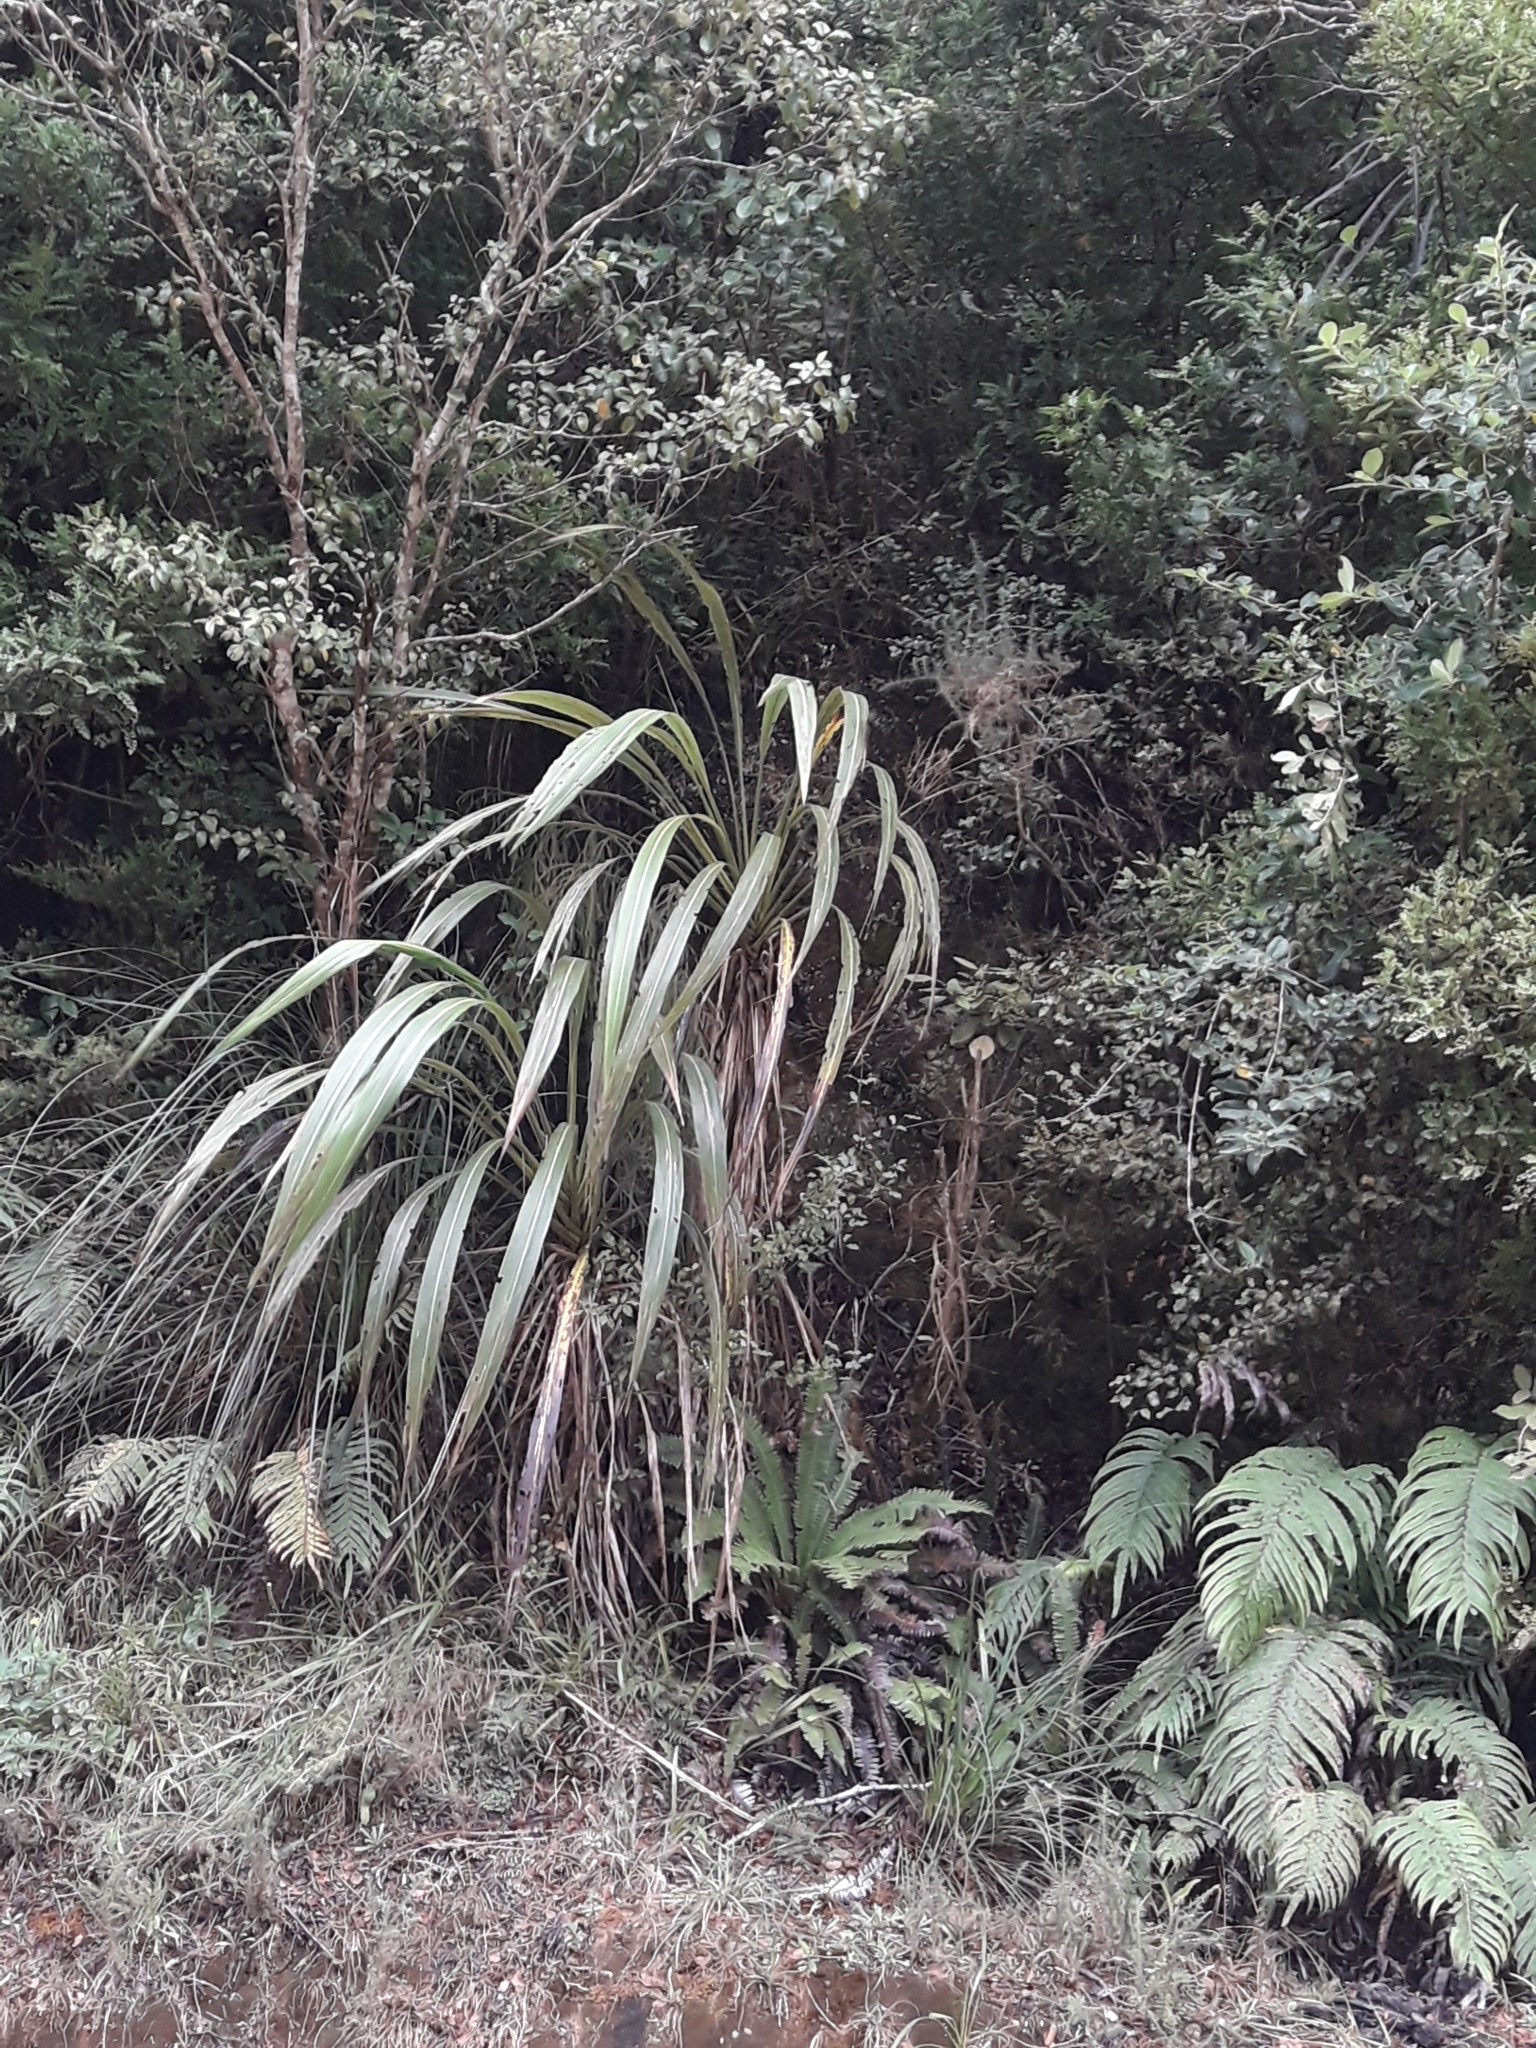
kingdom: Plantae
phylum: Tracheophyta
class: Liliopsida
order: Asparagales
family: Asparagaceae
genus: Cordyline
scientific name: Cordyline banksii
